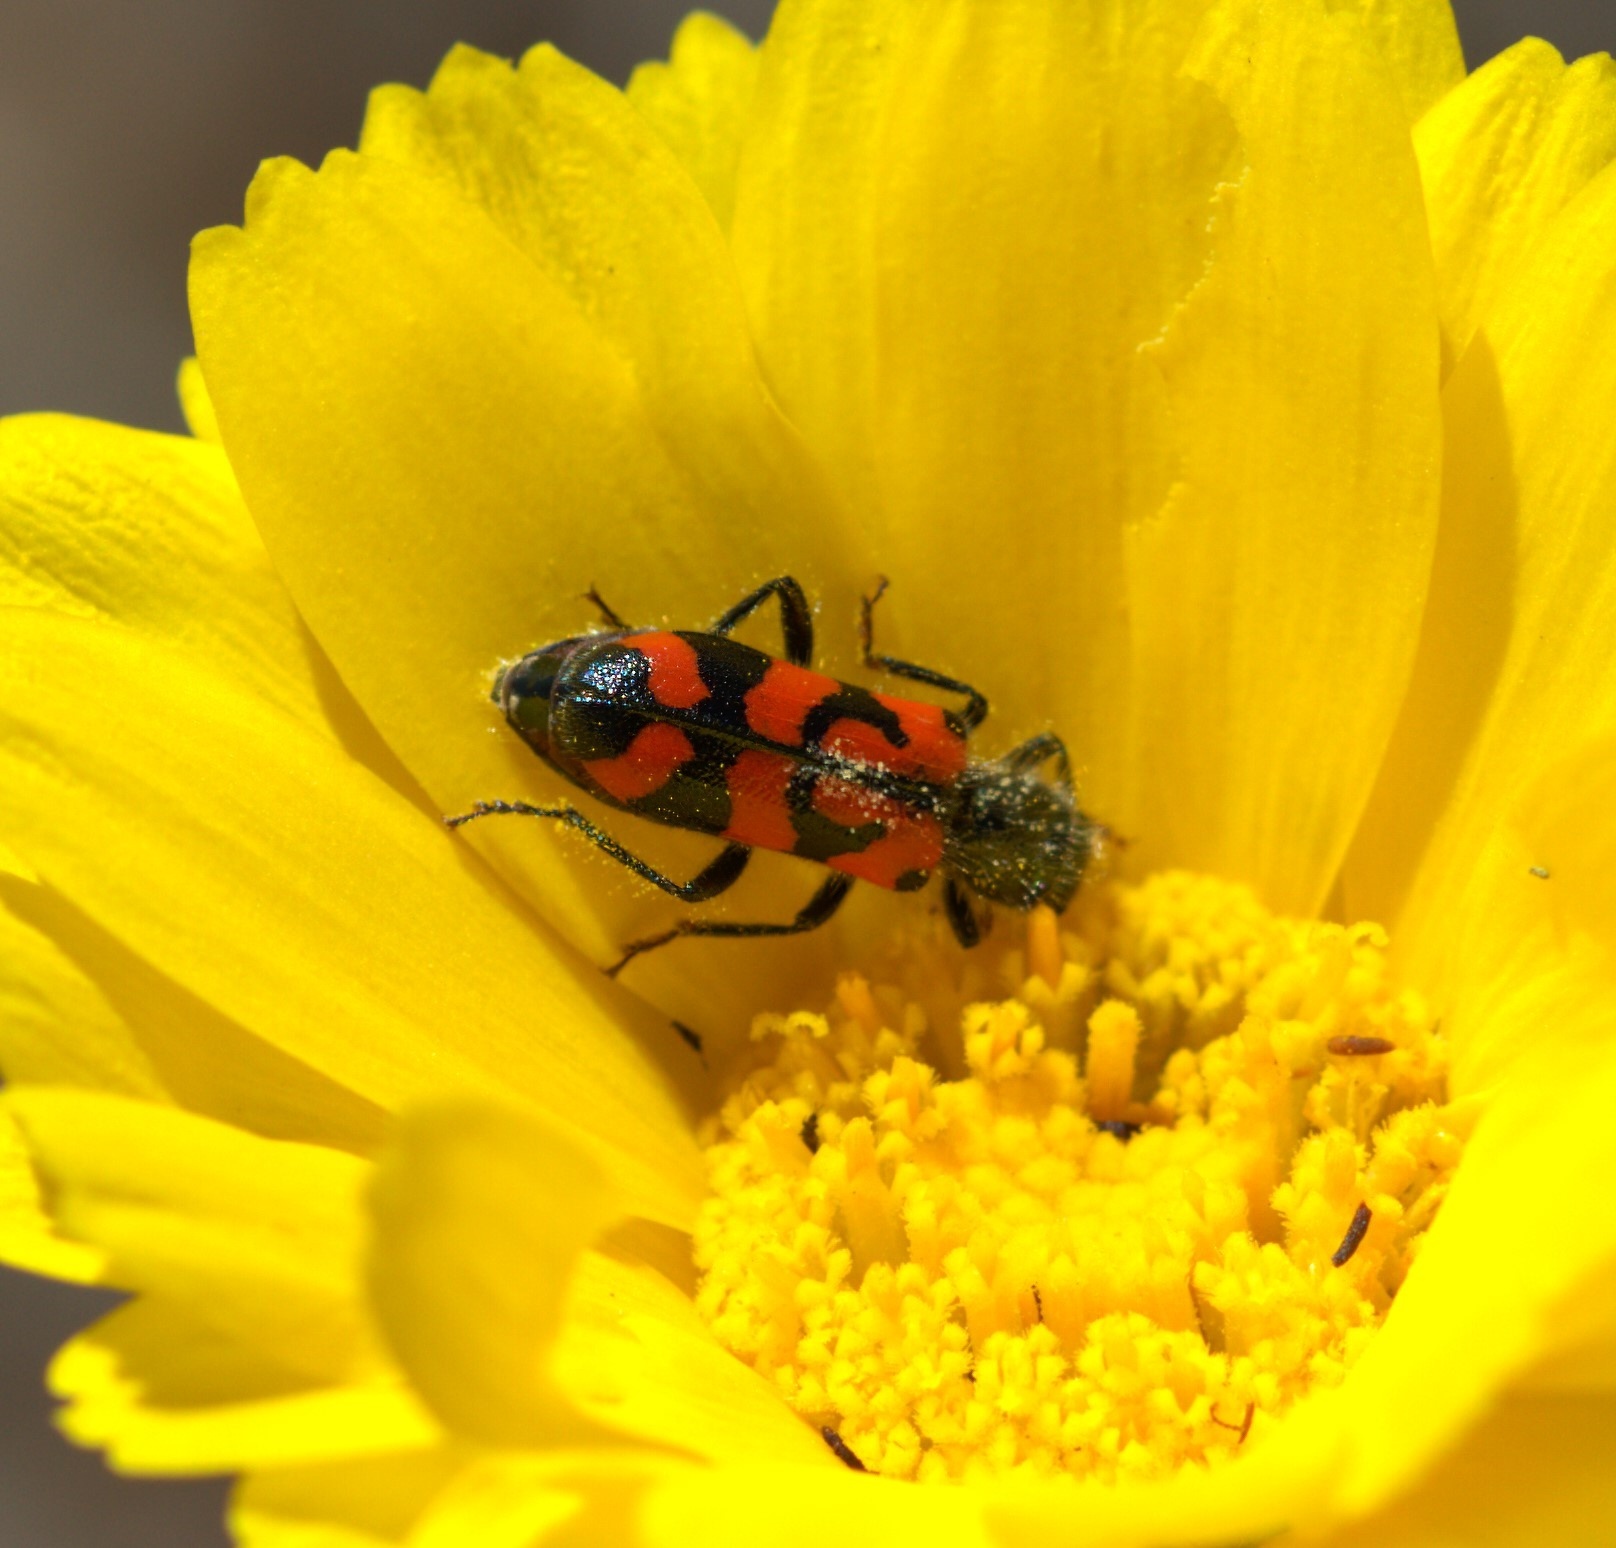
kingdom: Animalia
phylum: Arthropoda
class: Insecta
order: Coleoptera
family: Cleridae
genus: Trichodes
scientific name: Trichodes ornatus
